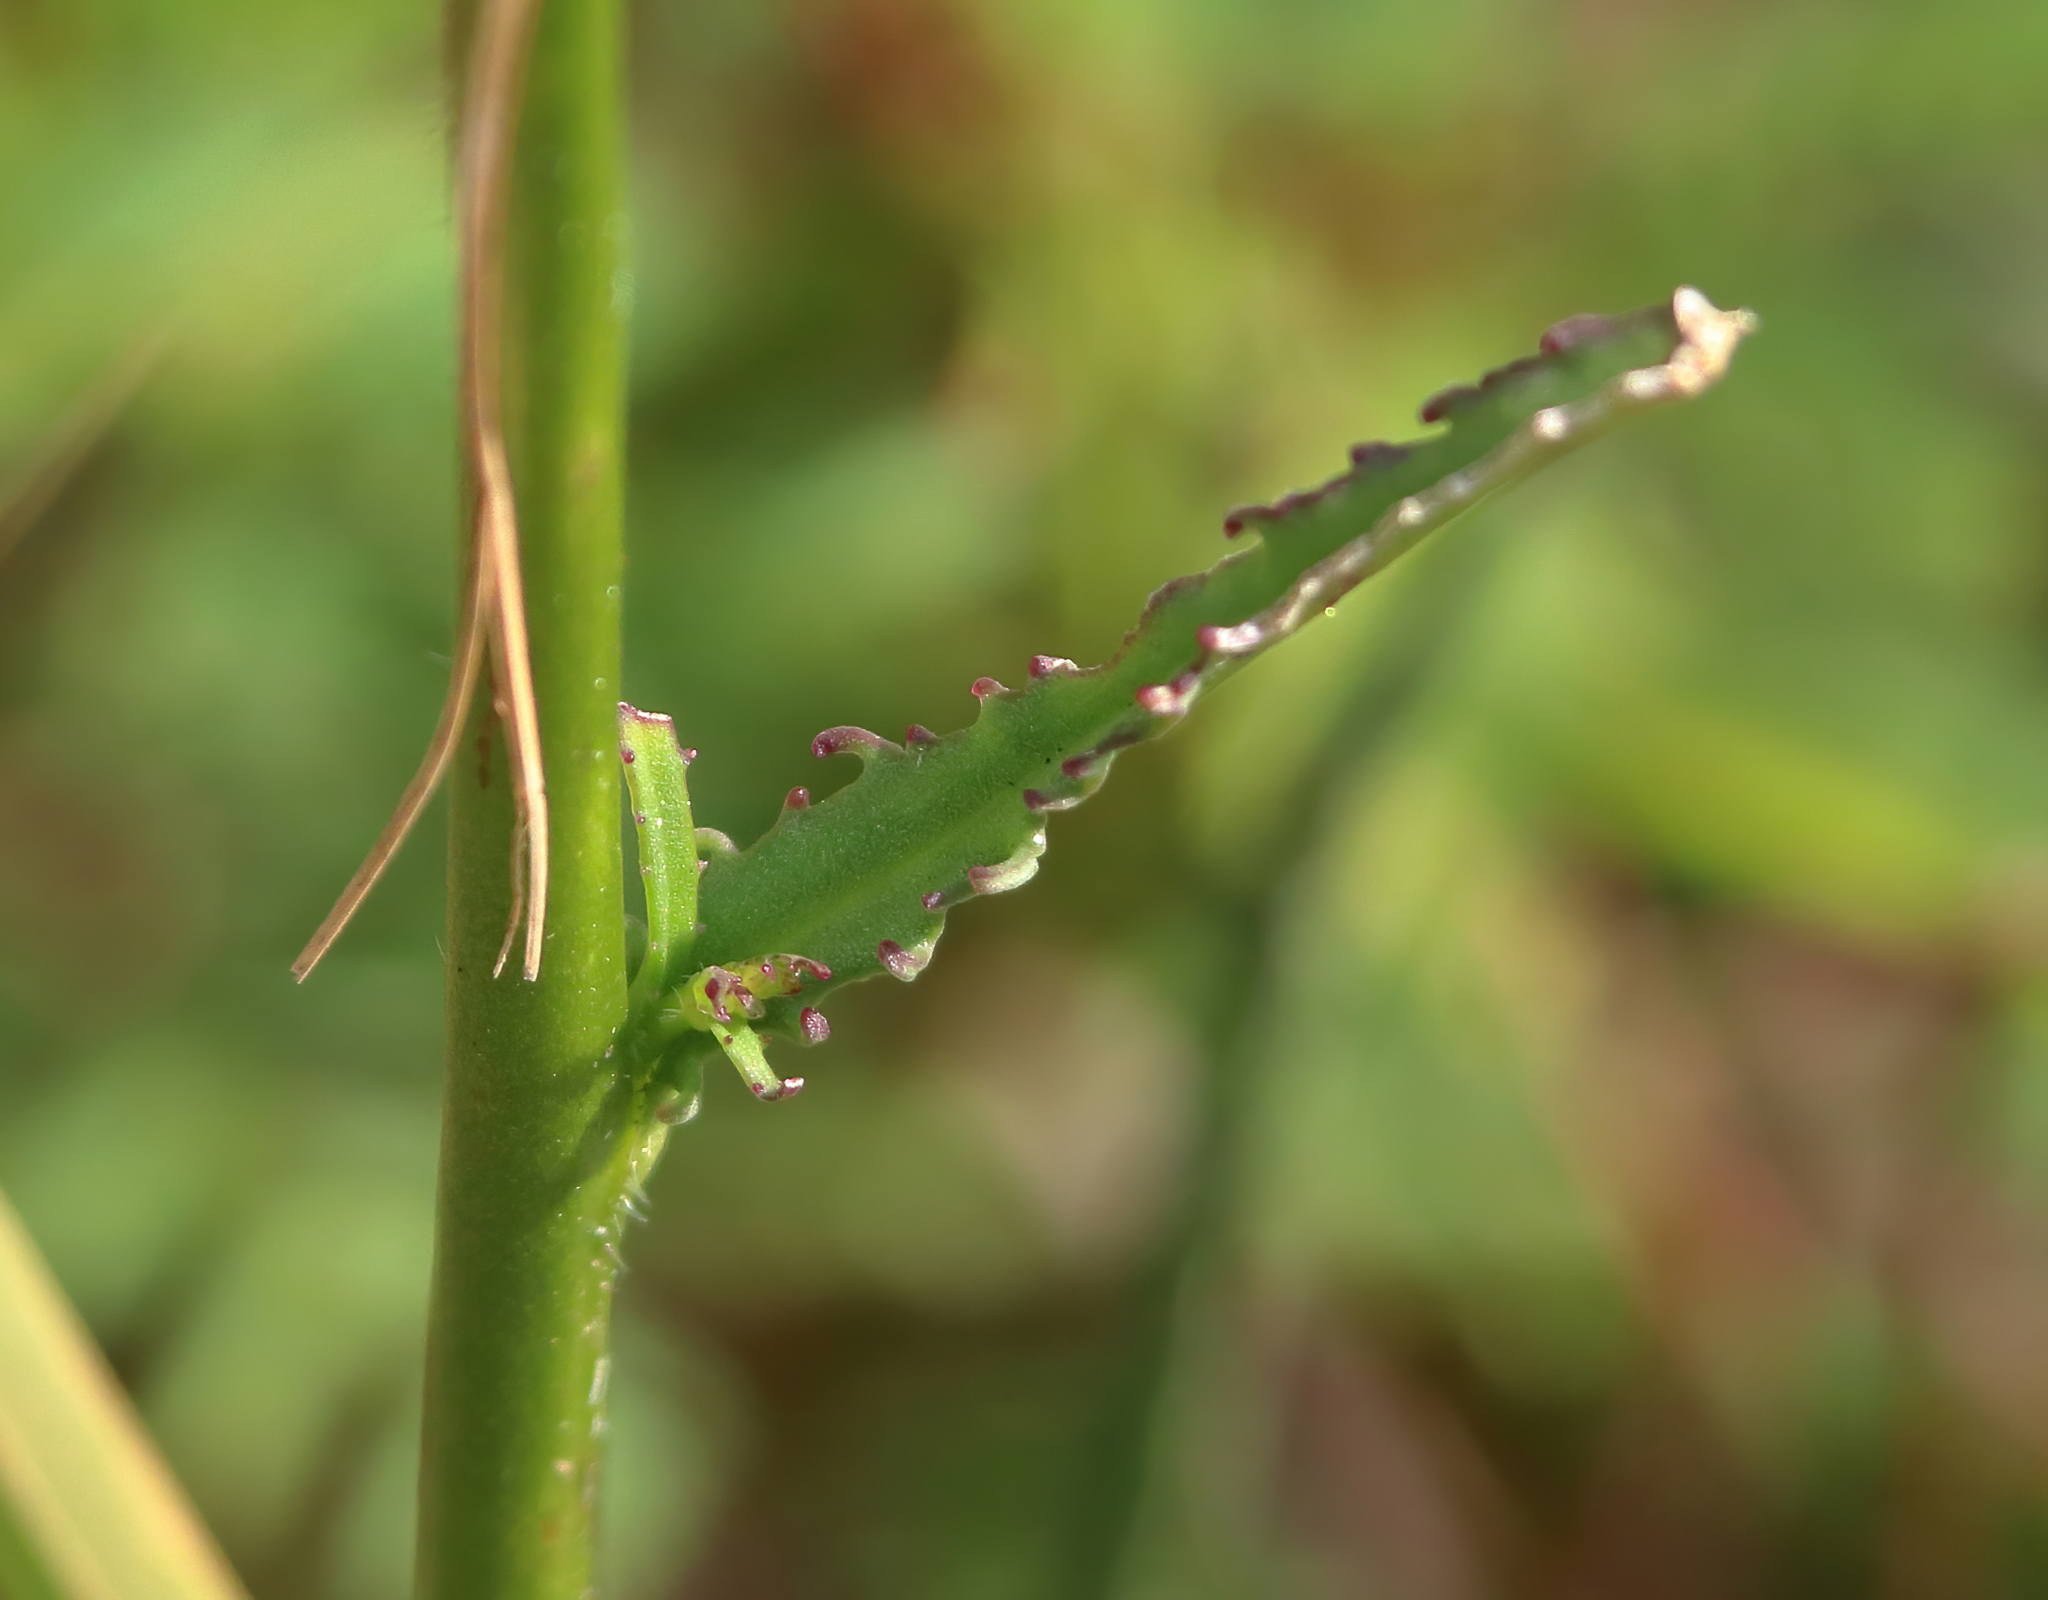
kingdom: Plantae
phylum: Tracheophyta
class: Magnoliopsida
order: Asterales
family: Campanulaceae
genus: Lobelia
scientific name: Lobelia glandulosa
